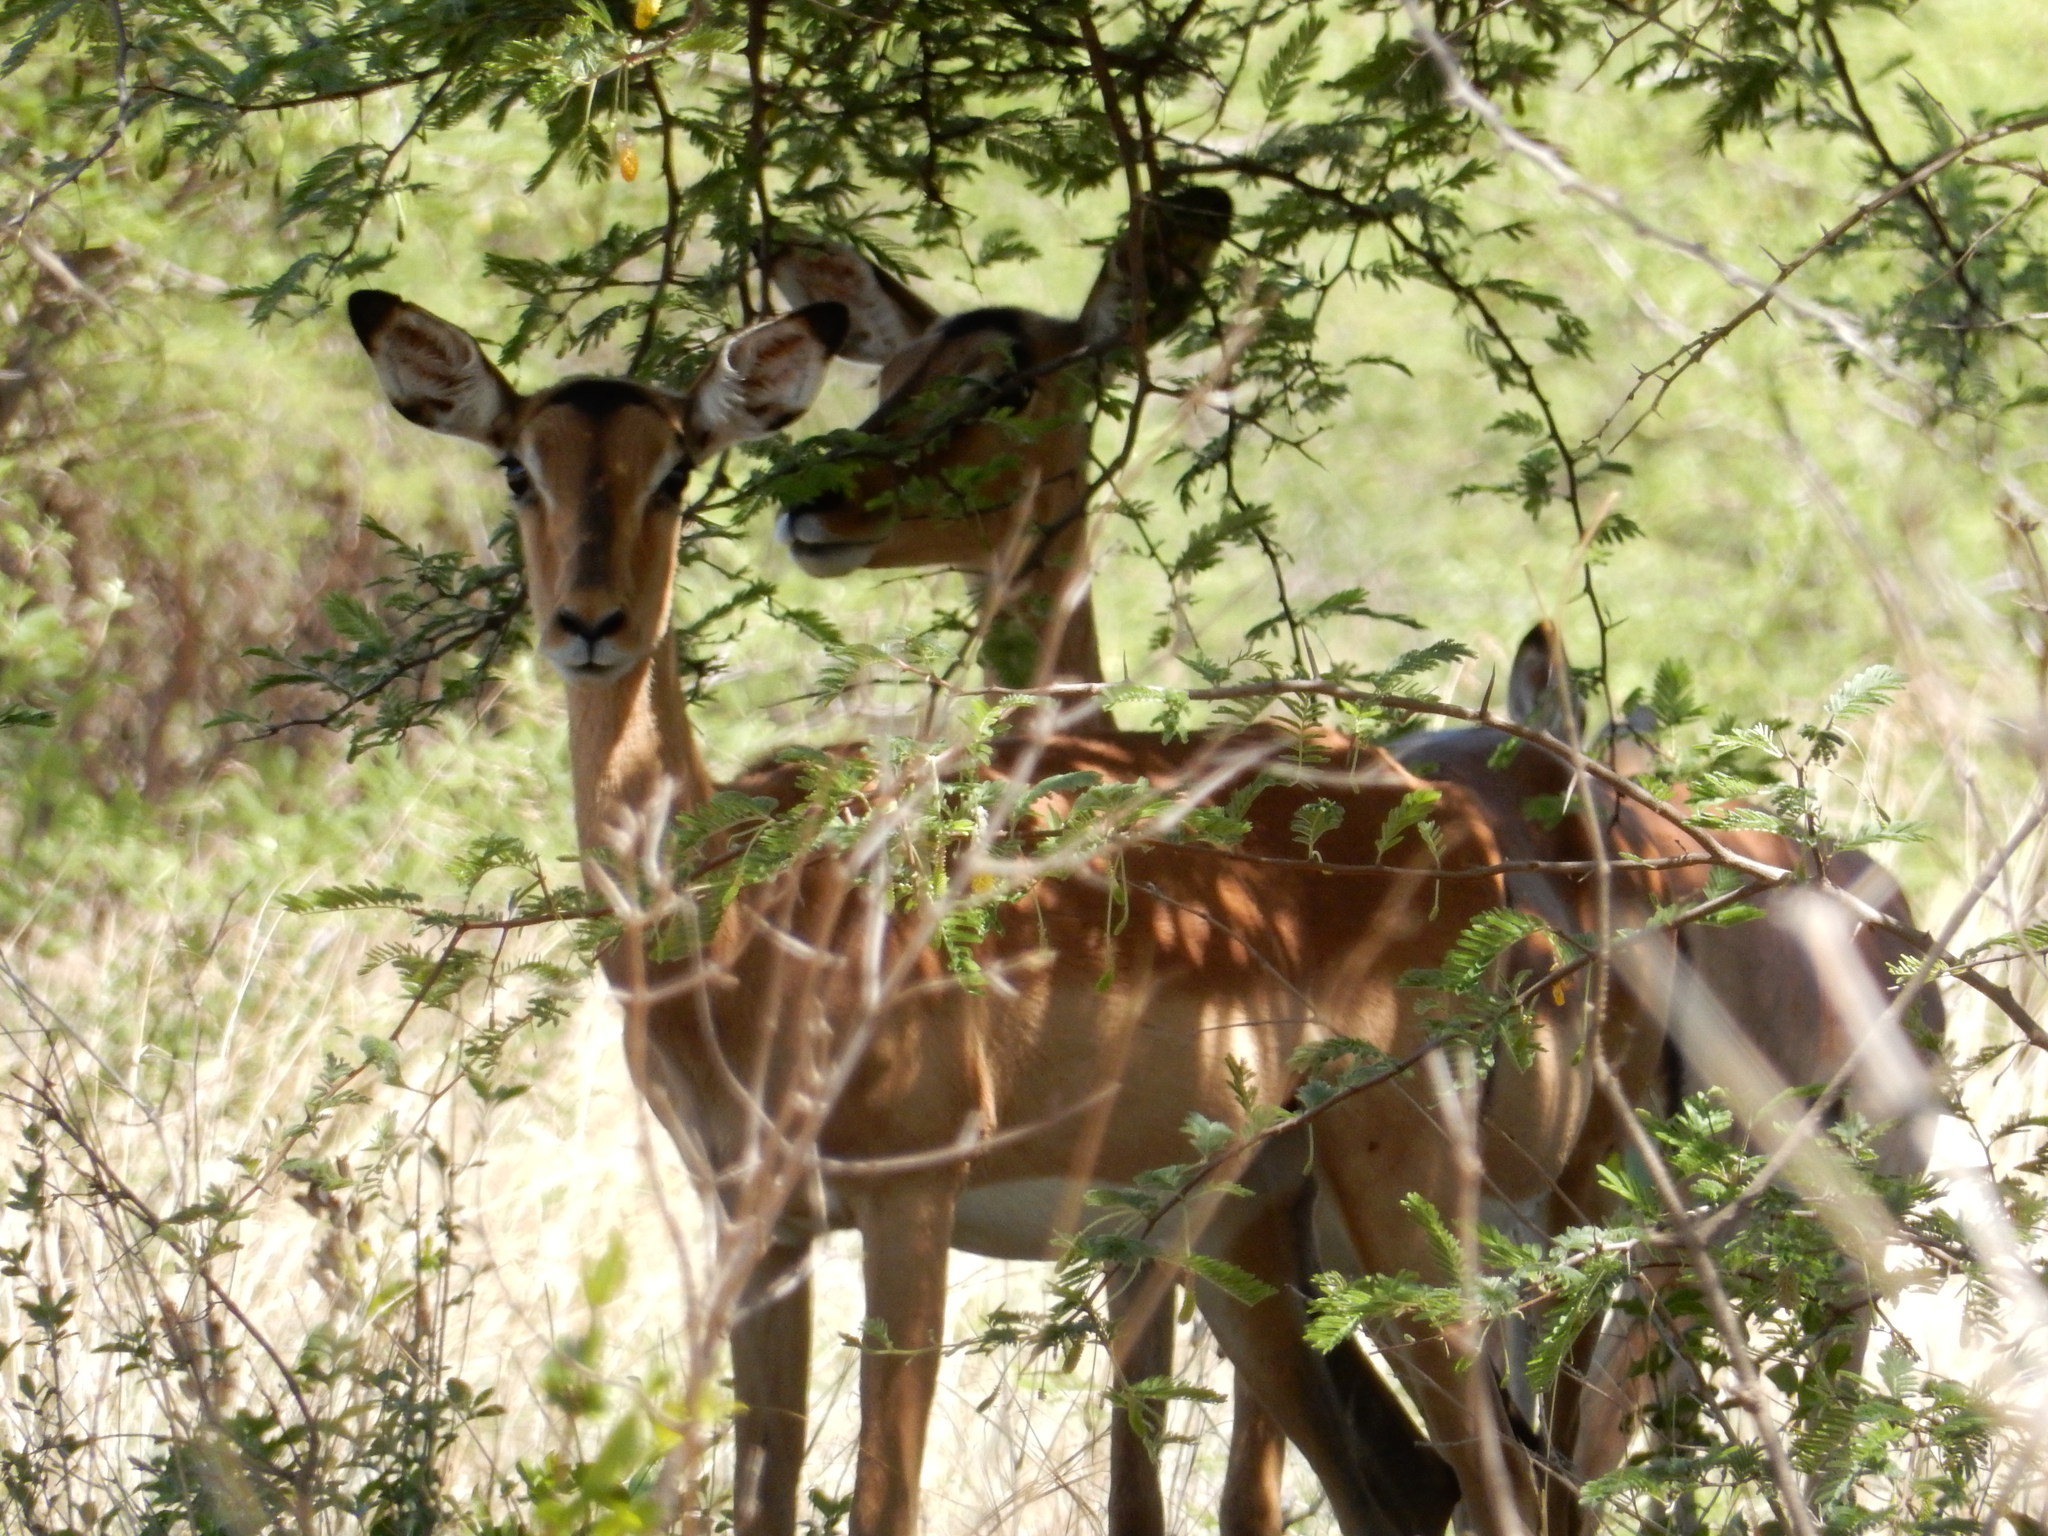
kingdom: Animalia
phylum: Chordata
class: Mammalia
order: Artiodactyla
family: Bovidae
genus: Aepyceros
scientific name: Aepyceros melampus
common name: Impala
